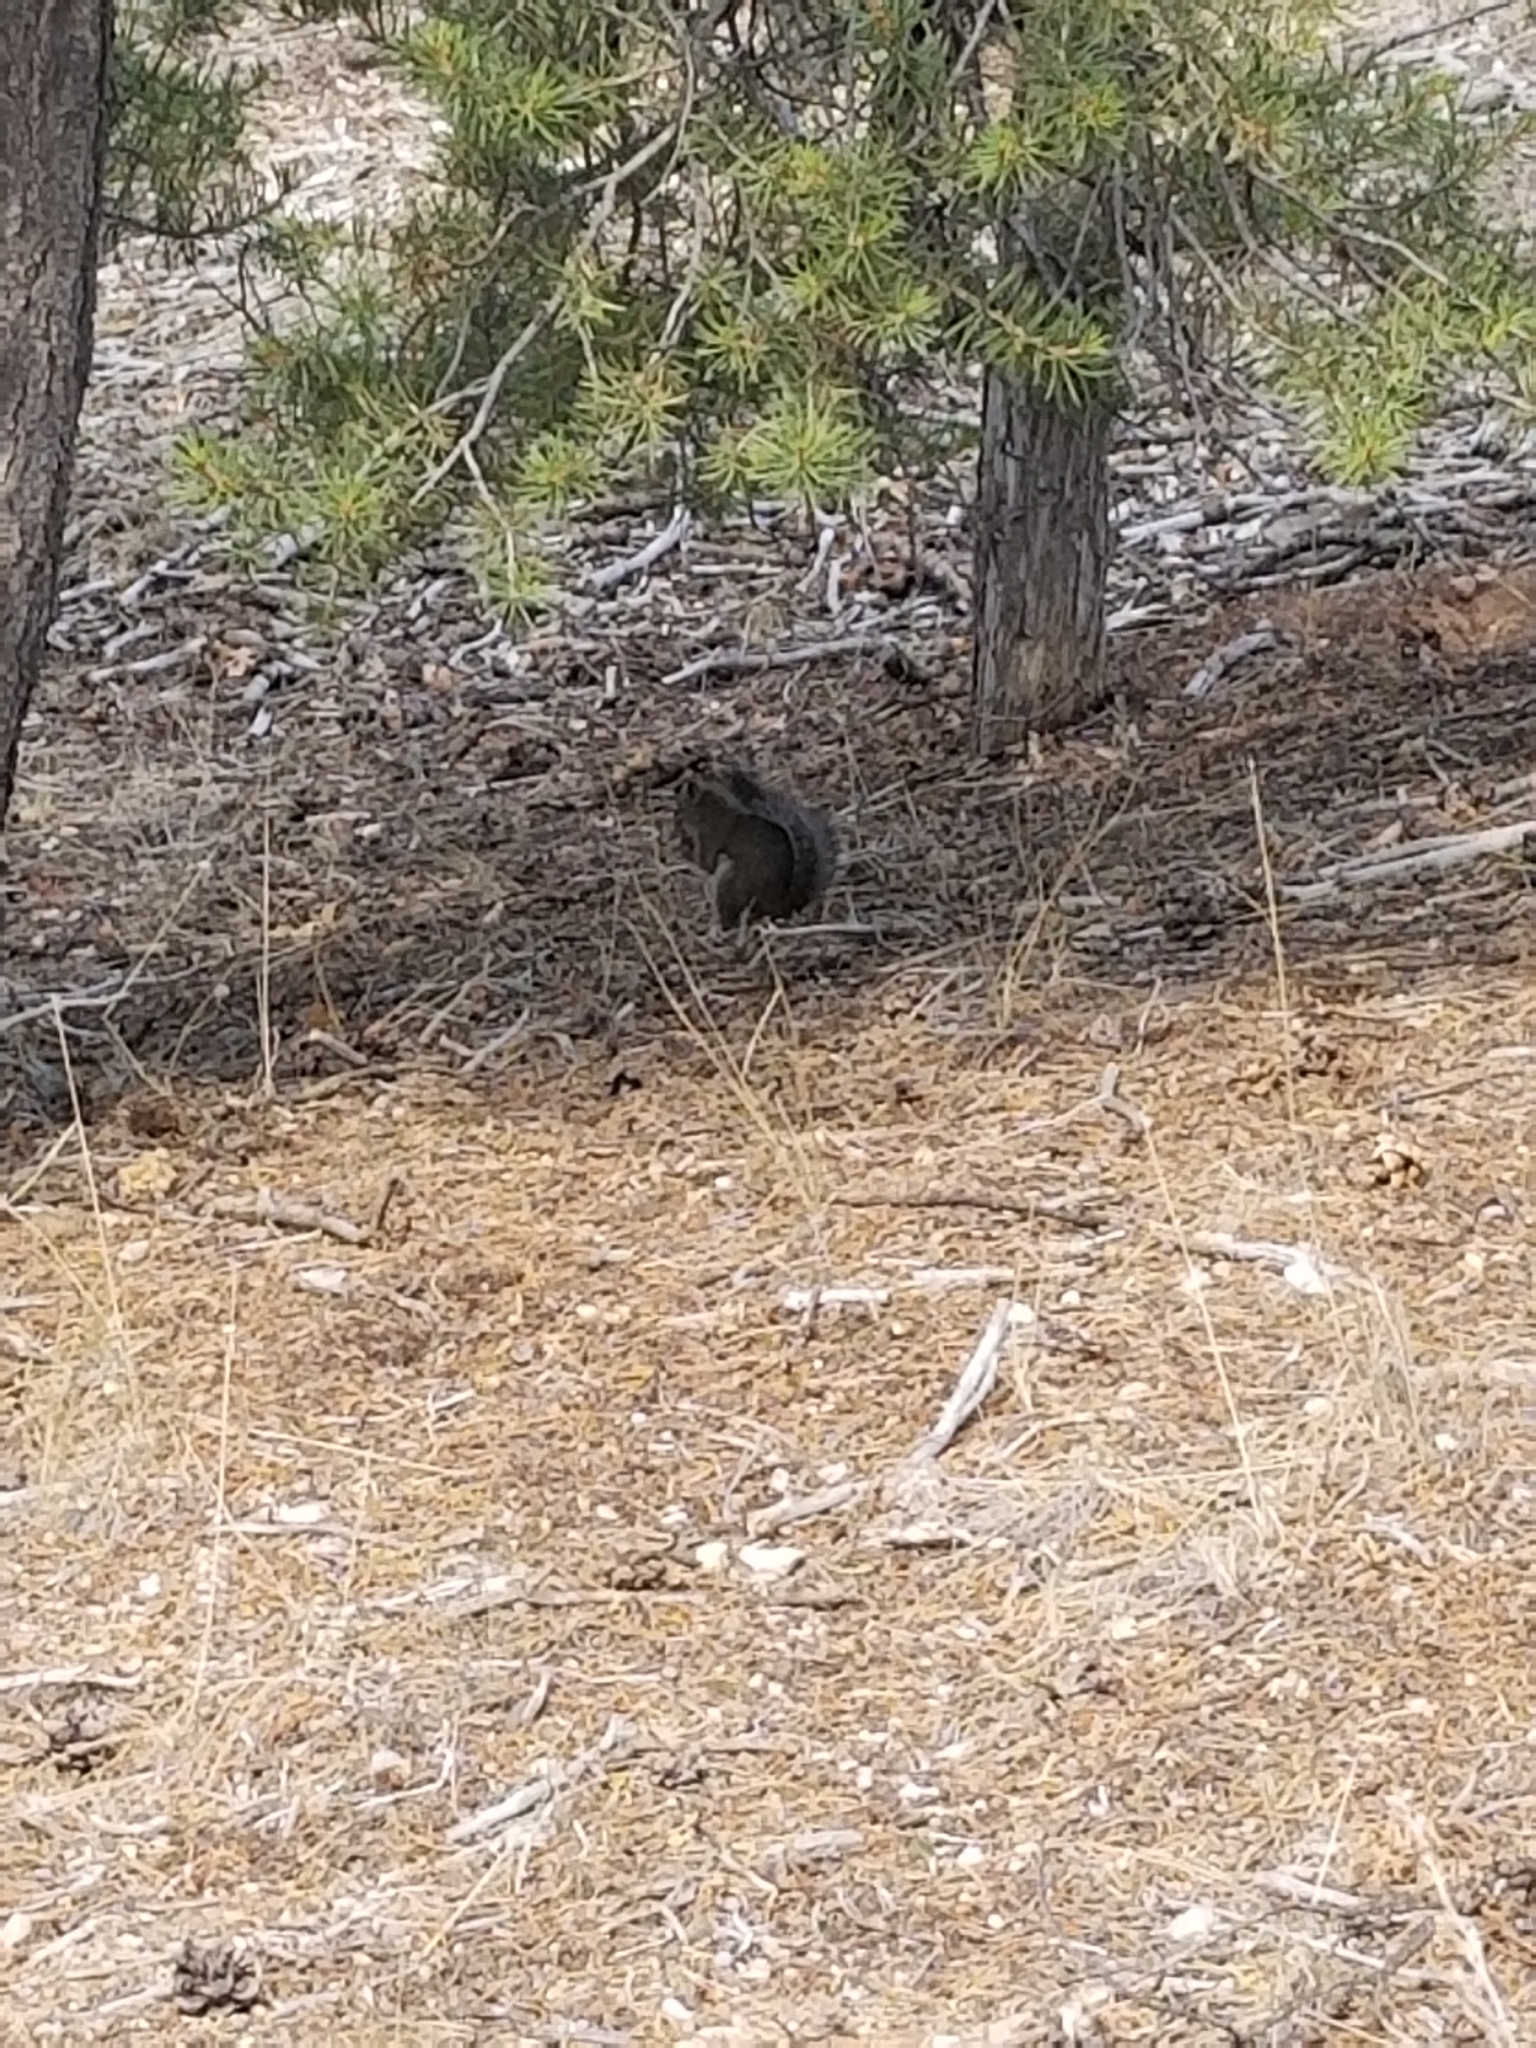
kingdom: Animalia
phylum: Chordata
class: Mammalia
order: Rodentia
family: Sciuridae
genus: Tamiasciurus
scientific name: Tamiasciurus hudsonicus
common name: Red squirrel
